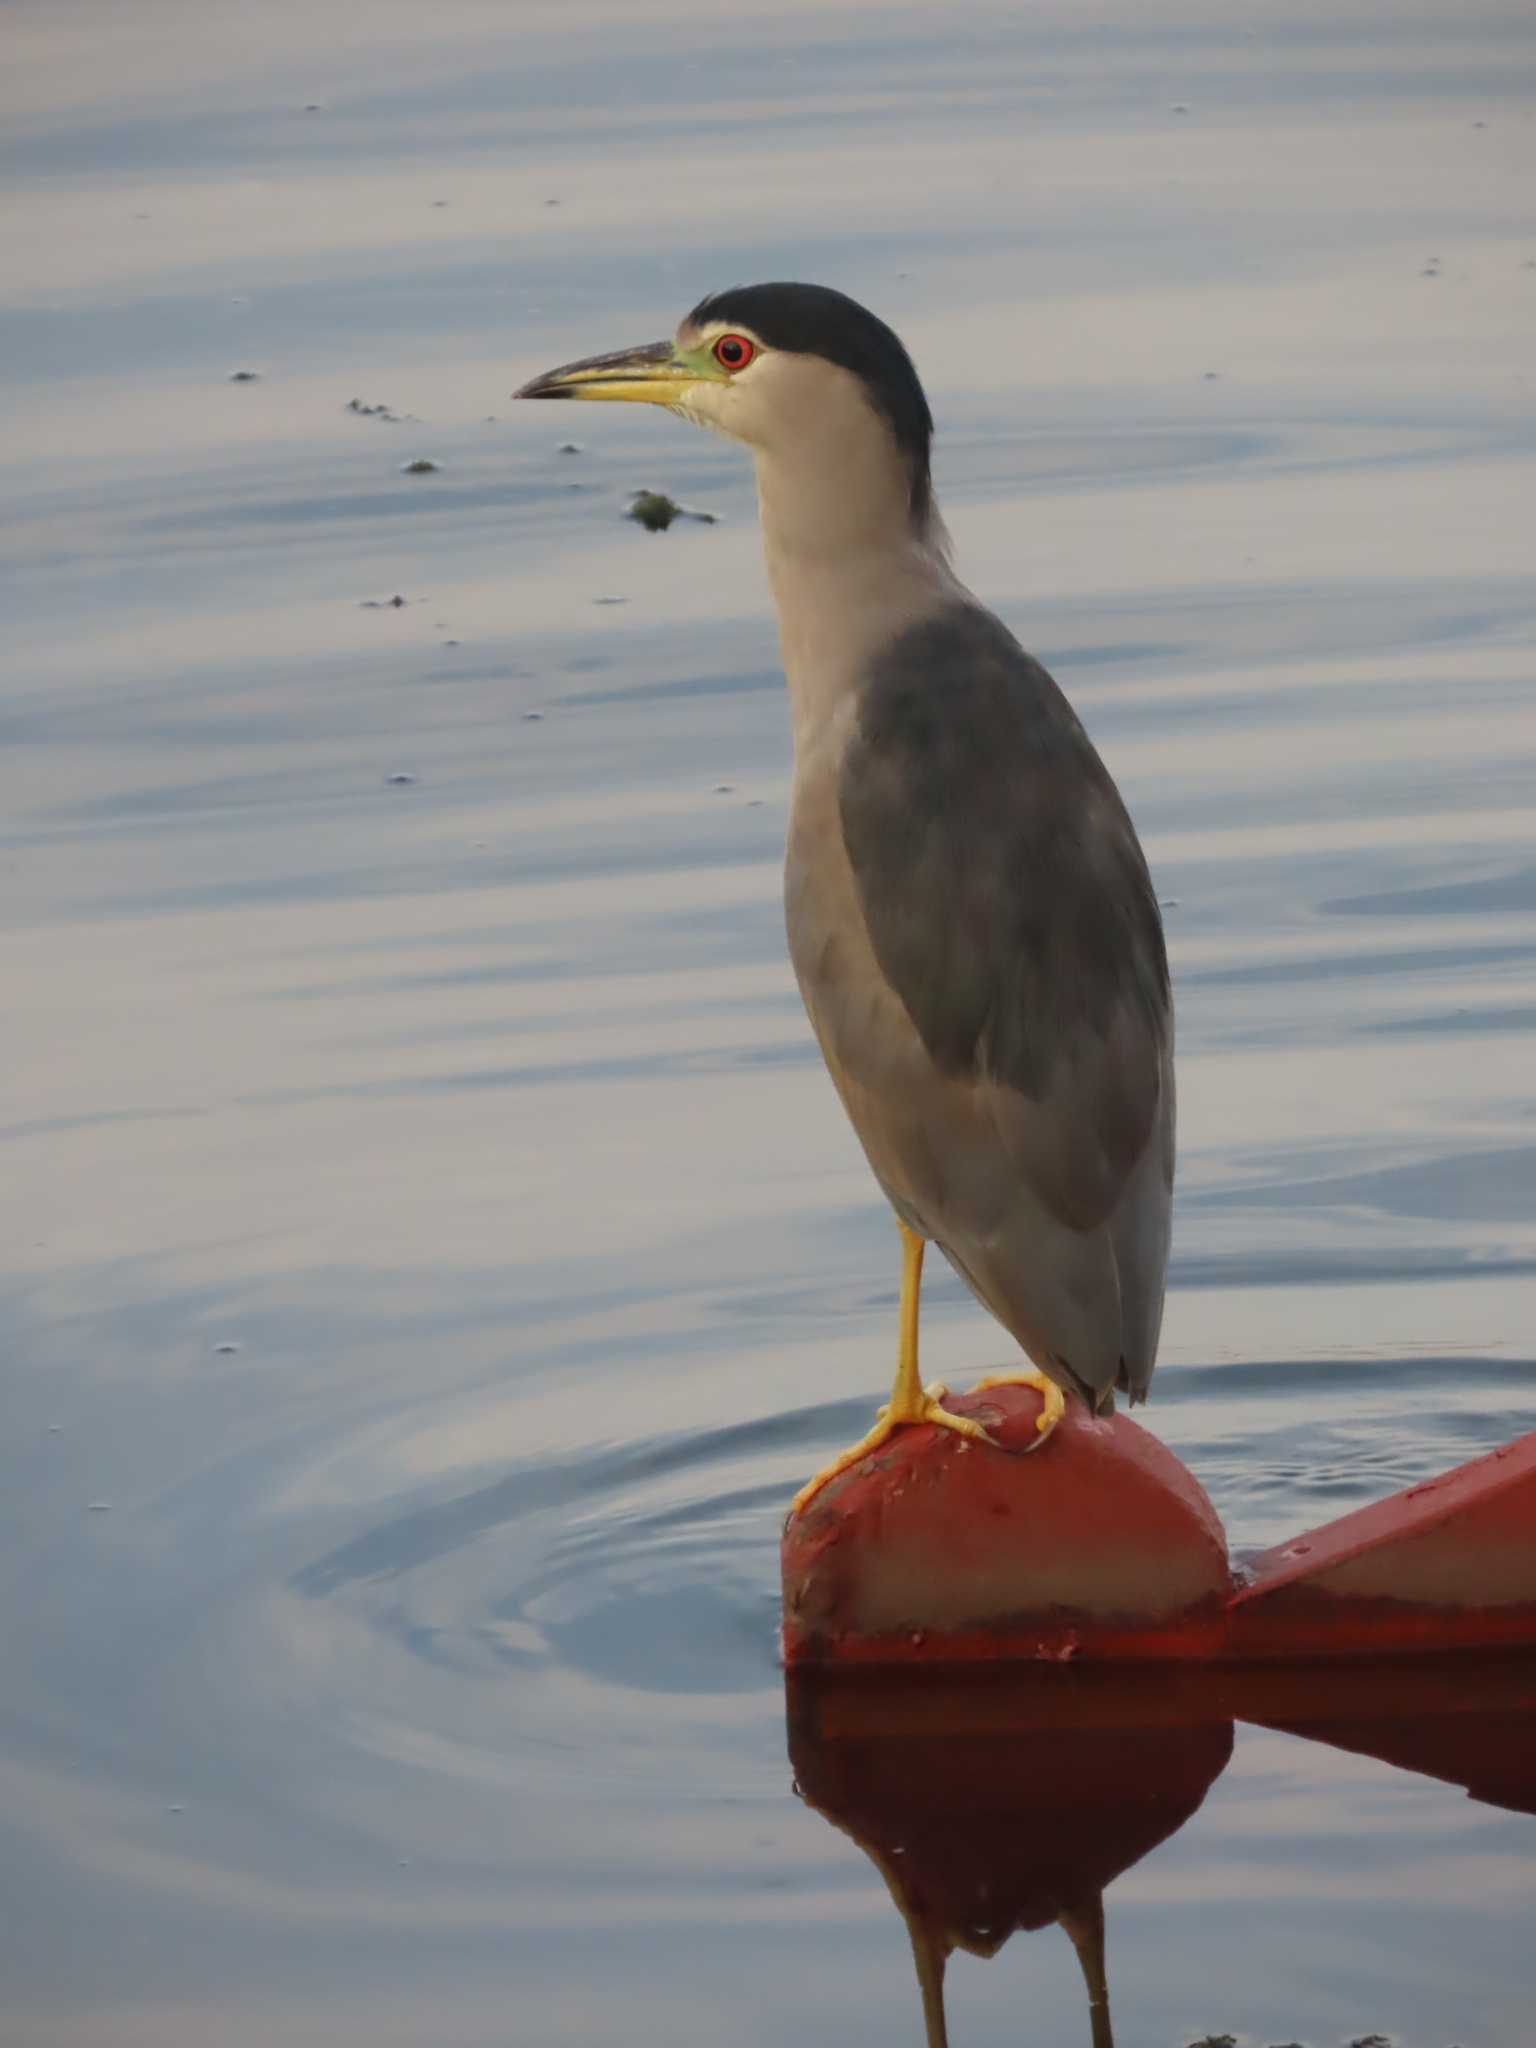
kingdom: Animalia
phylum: Chordata
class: Aves
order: Pelecaniformes
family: Ardeidae
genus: Nycticorax
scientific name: Nycticorax nycticorax
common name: Black-crowned night heron
